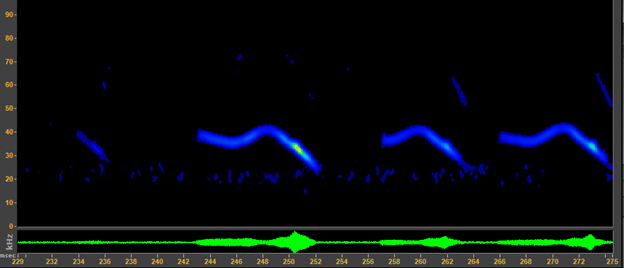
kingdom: Animalia
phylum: Chordata
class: Mammalia
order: Chiroptera
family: Vespertilionidae
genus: Corynorhinus
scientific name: Corynorhinus townsendii
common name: Townsend's big-eared bat
